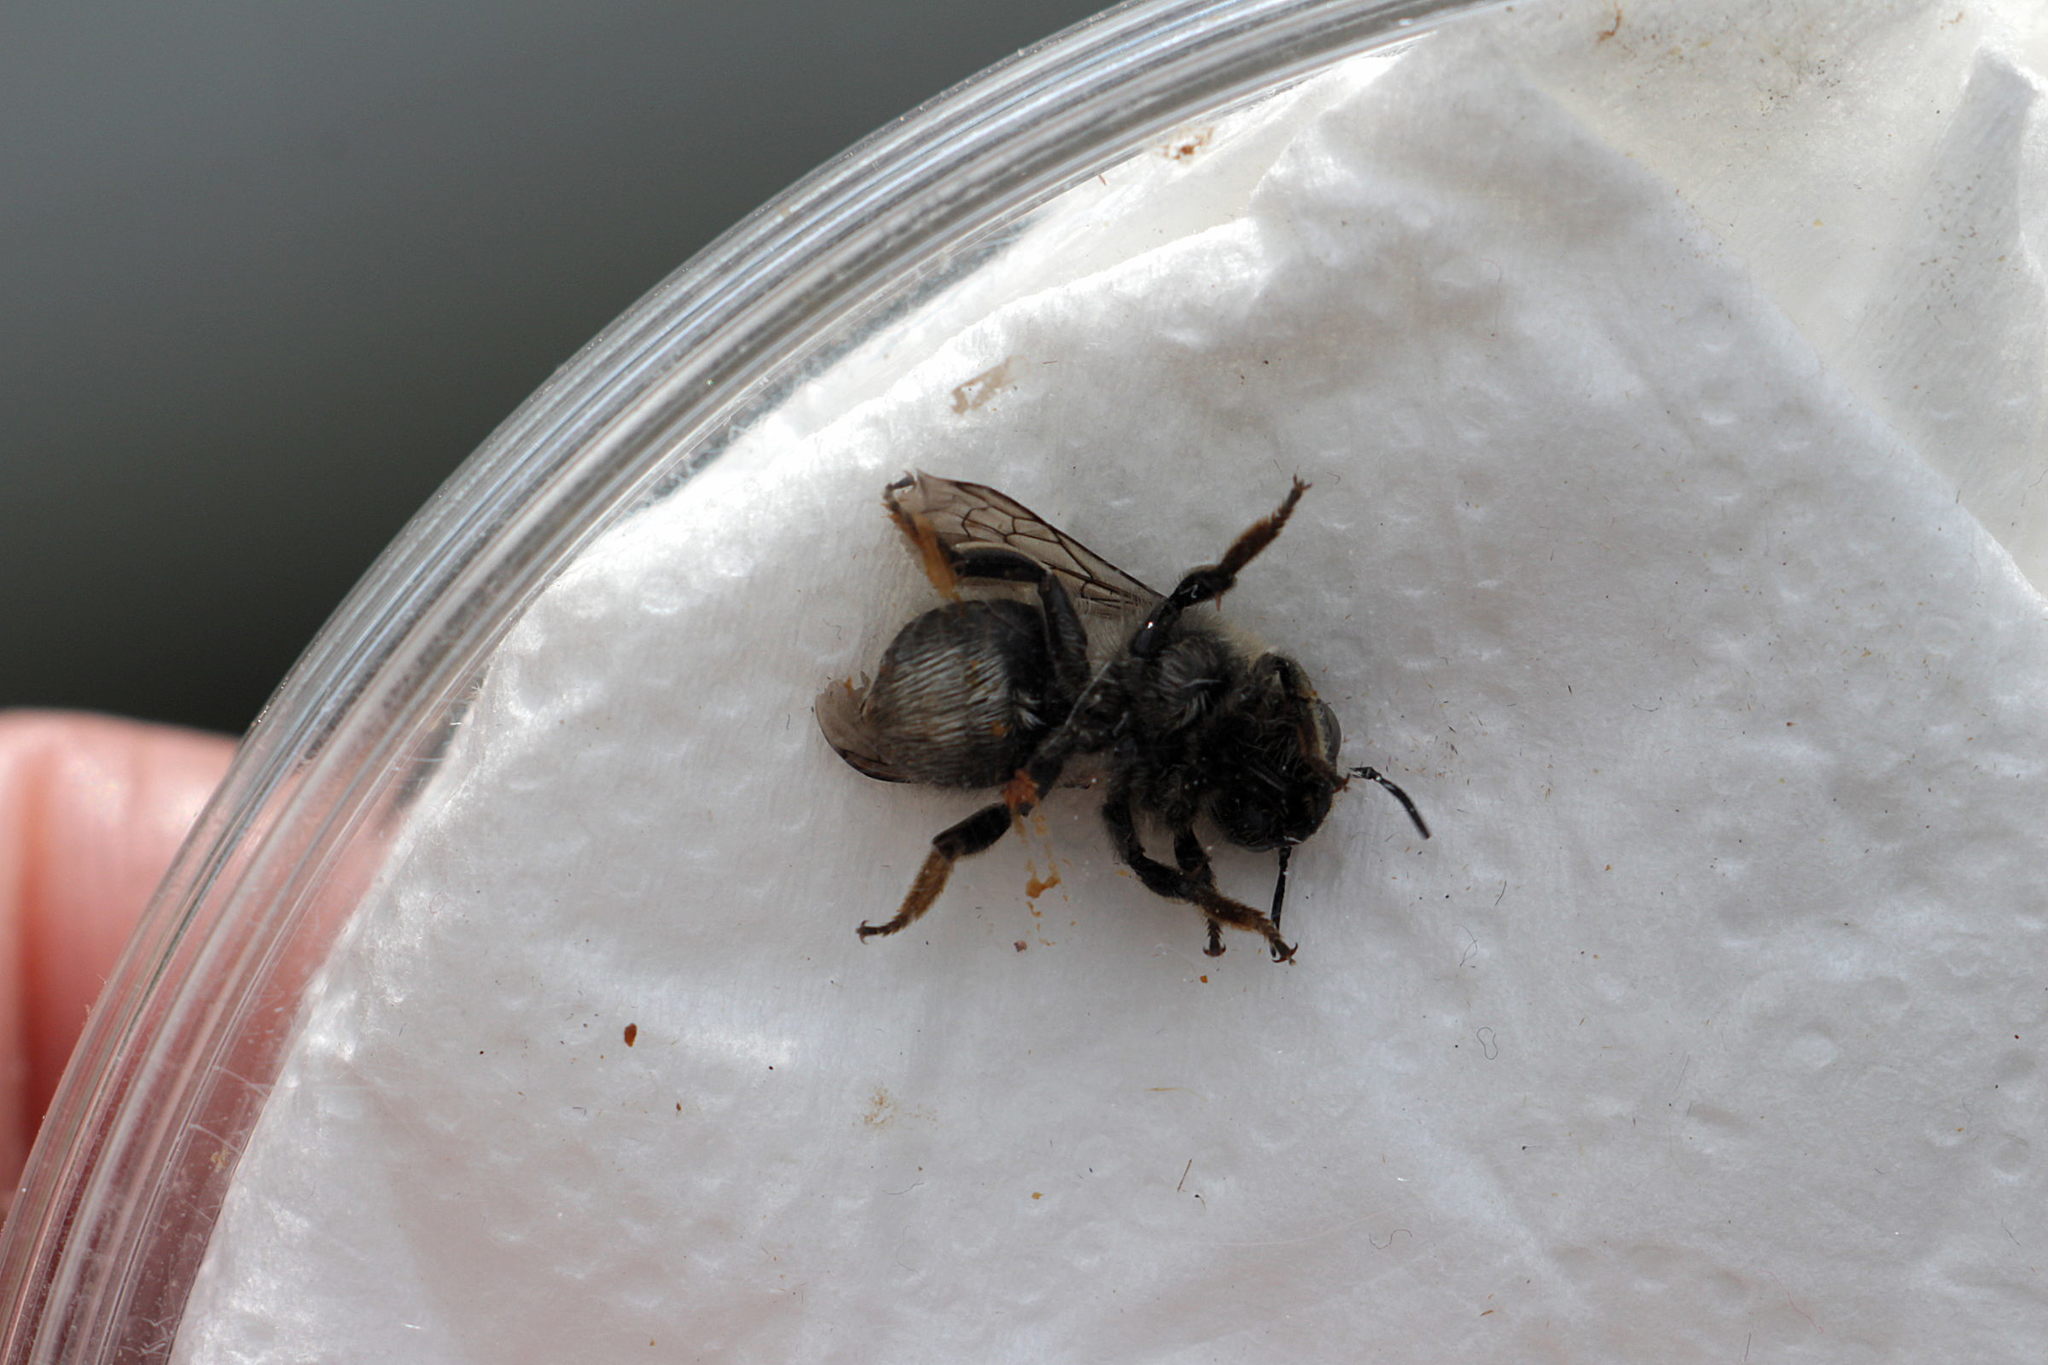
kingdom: Animalia
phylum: Arthropoda
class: Insecta
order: Hymenoptera
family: Megachilidae
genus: Trachusa
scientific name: Trachusa byssina
